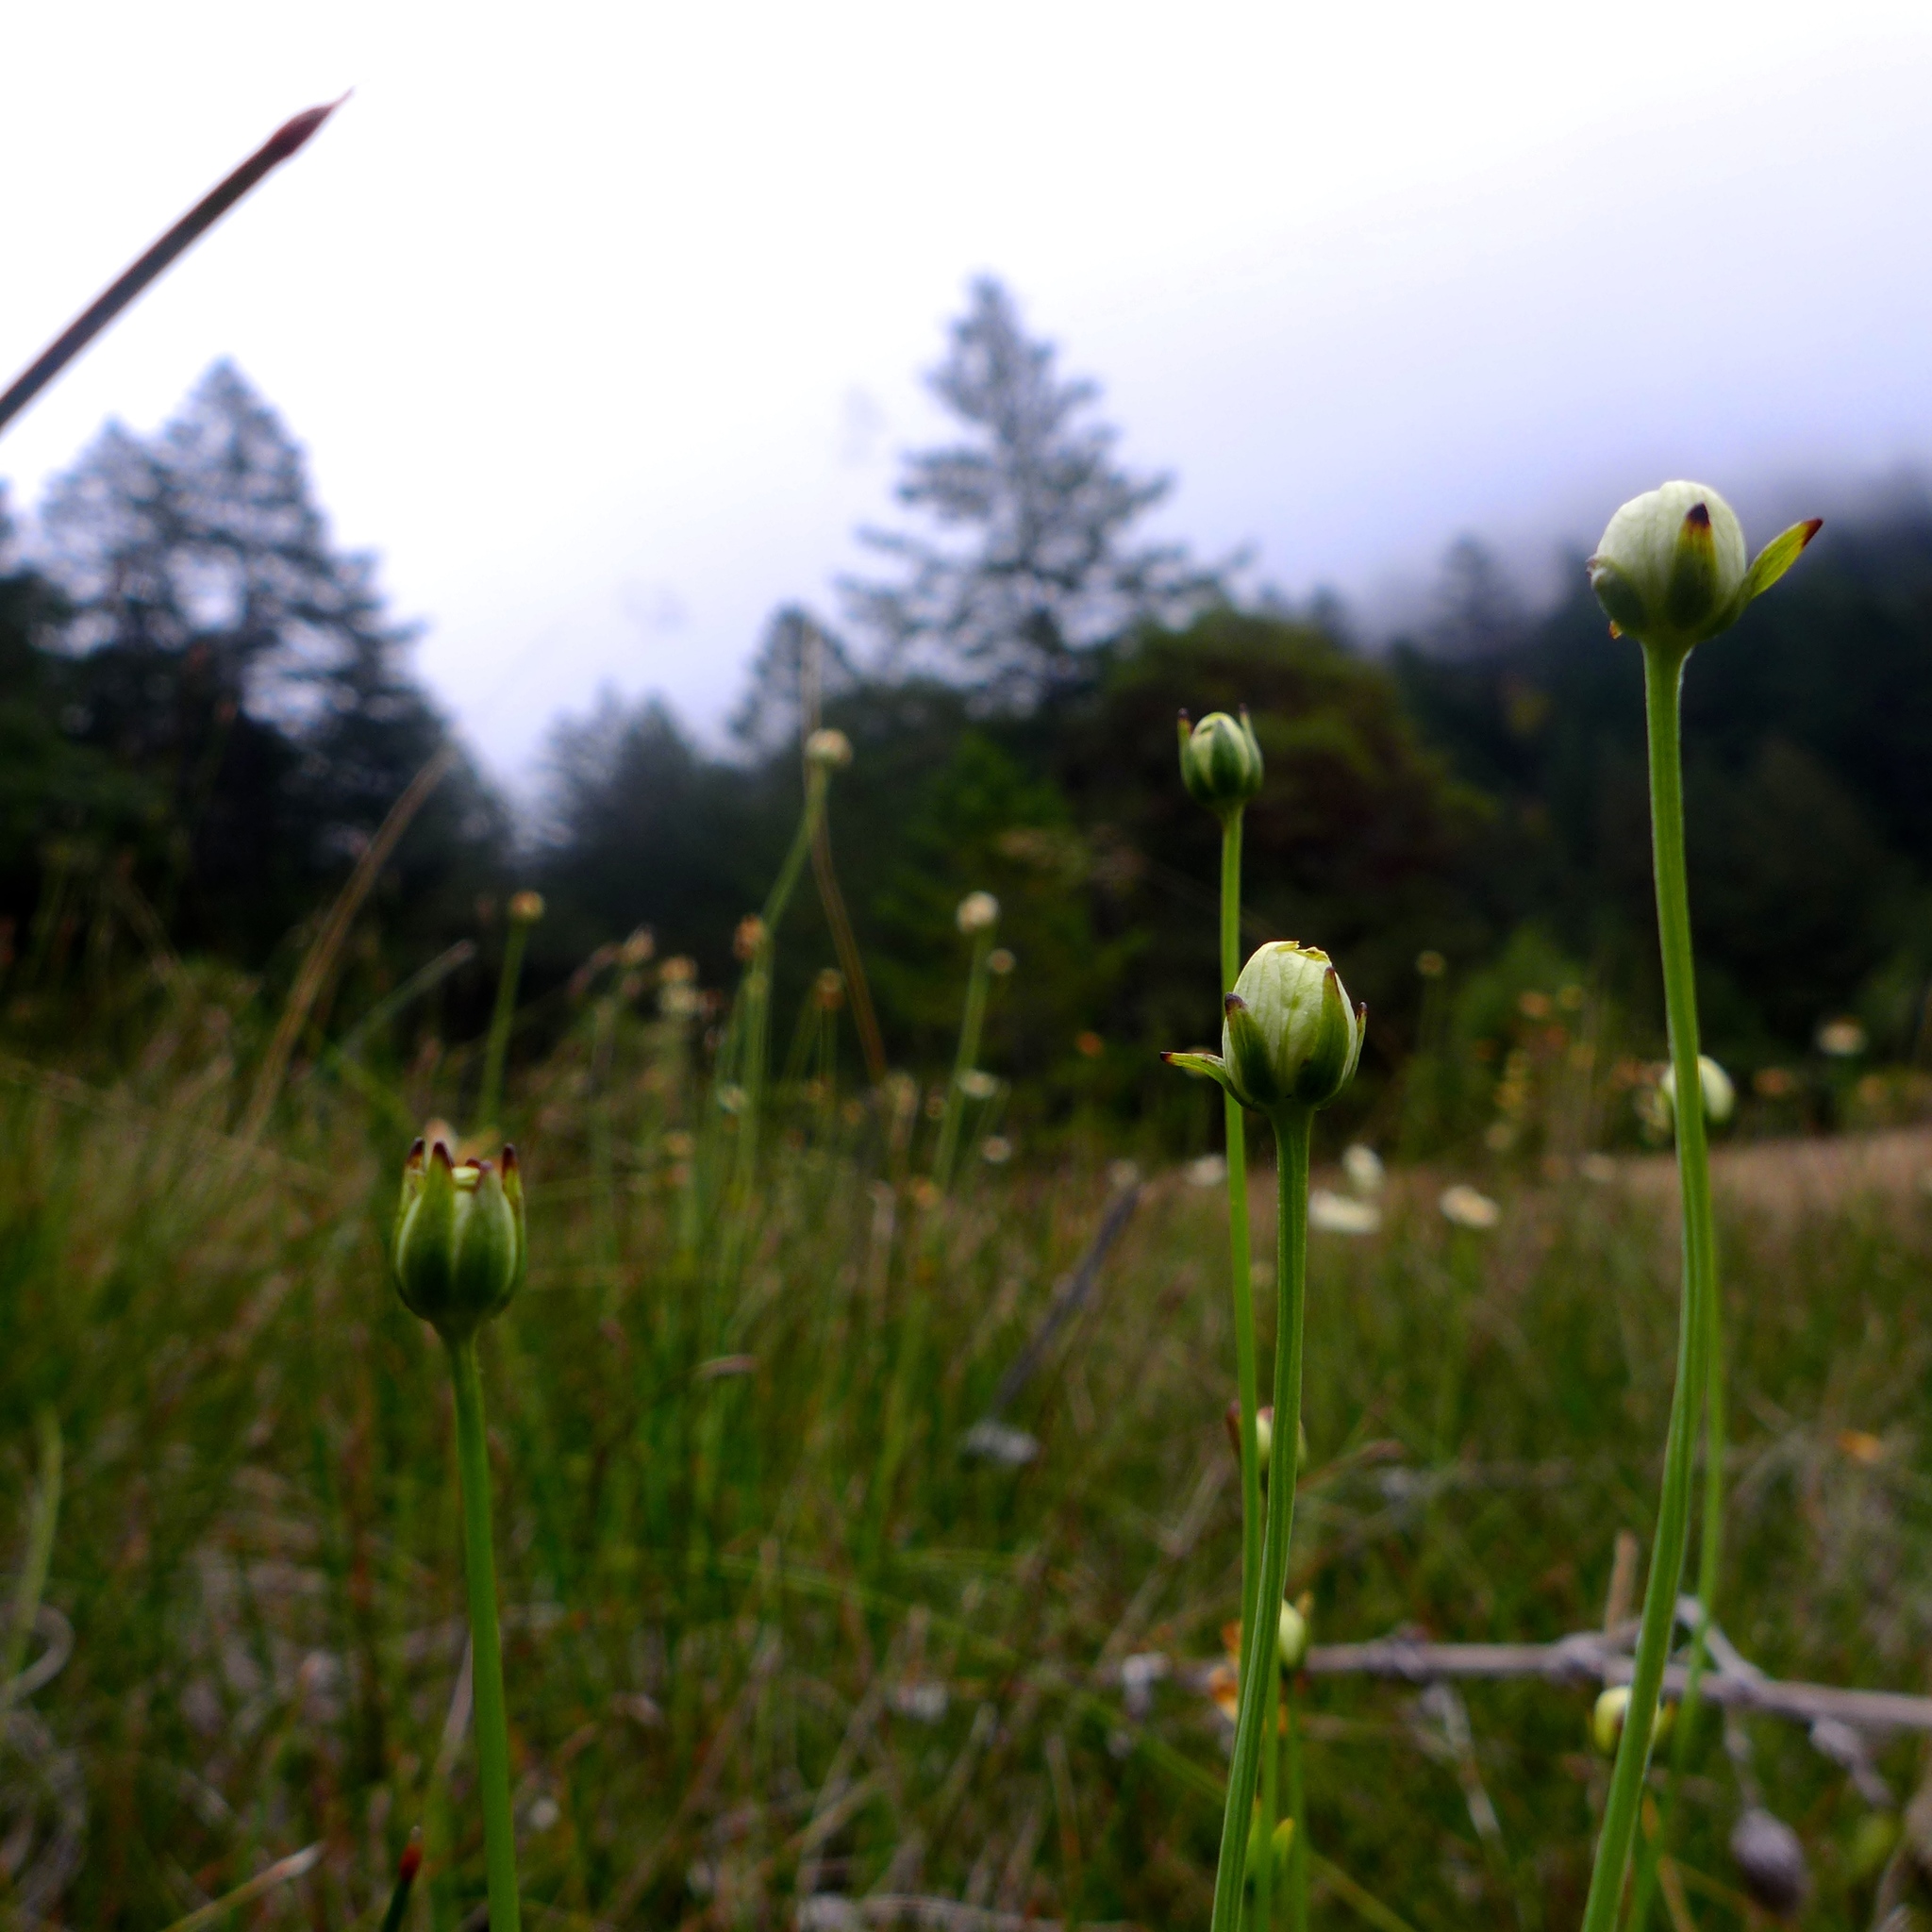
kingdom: Plantae
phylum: Tracheophyta
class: Magnoliopsida
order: Celastrales
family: Parnassiaceae
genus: Parnassia
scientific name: Parnassia palustris
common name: Grass-of-parnassus
